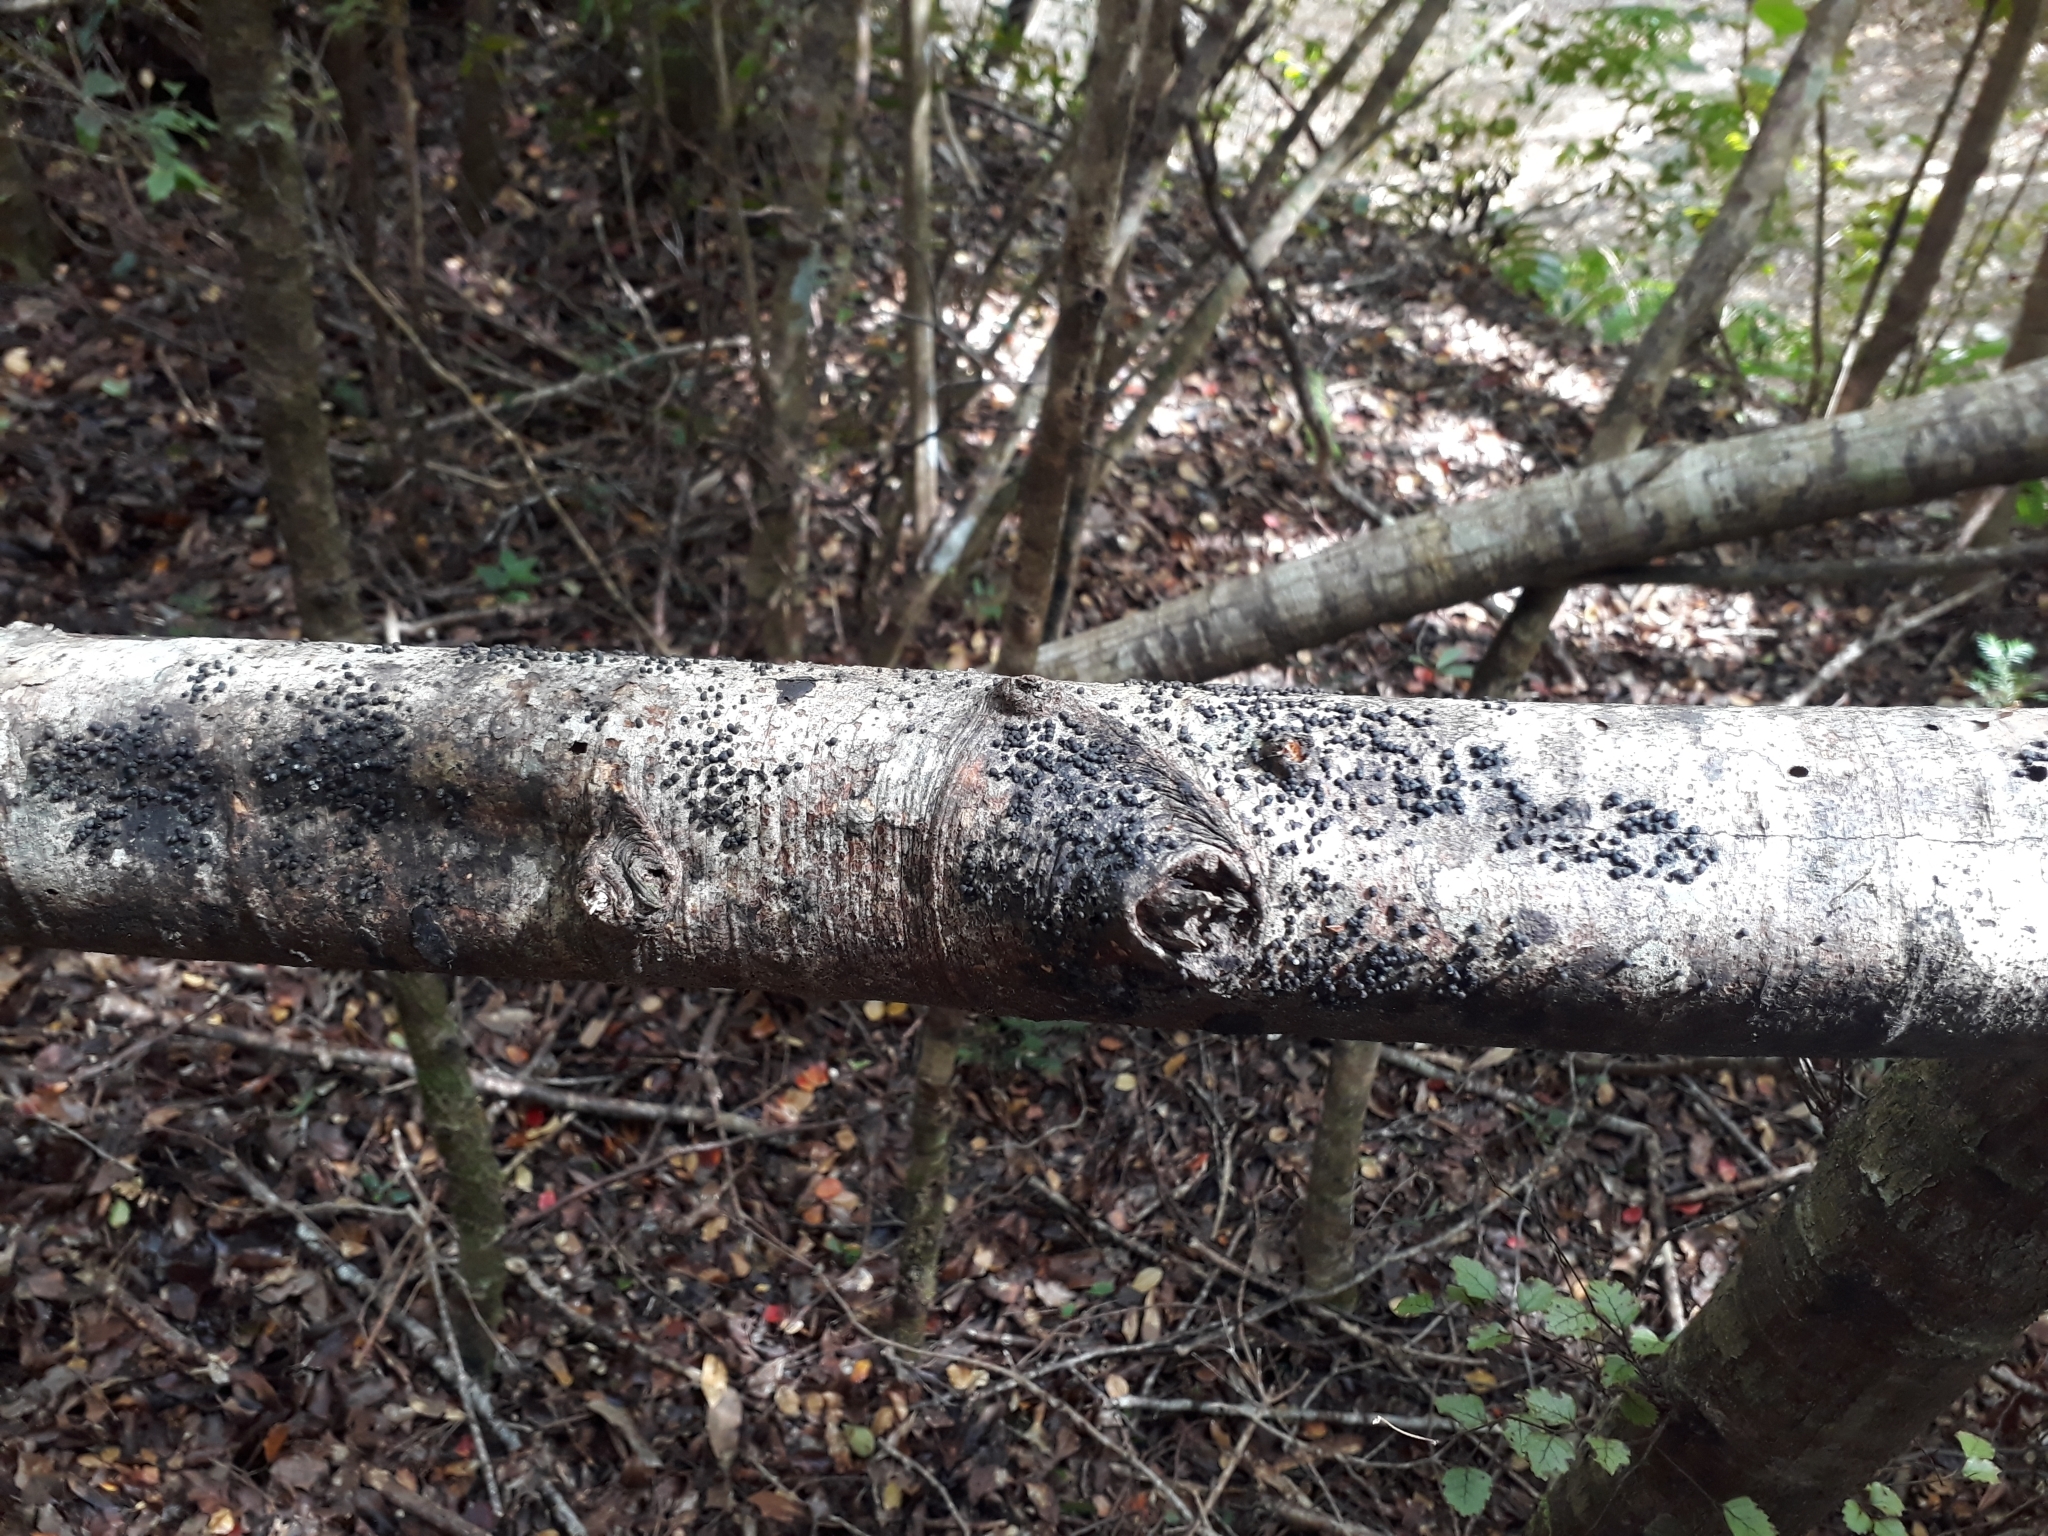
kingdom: Fungi
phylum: Ascomycota
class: Sordariomycetes
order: Xylariales
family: Hypoxylaceae
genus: Annulohypoxylon
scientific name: Annulohypoxylon bovei
